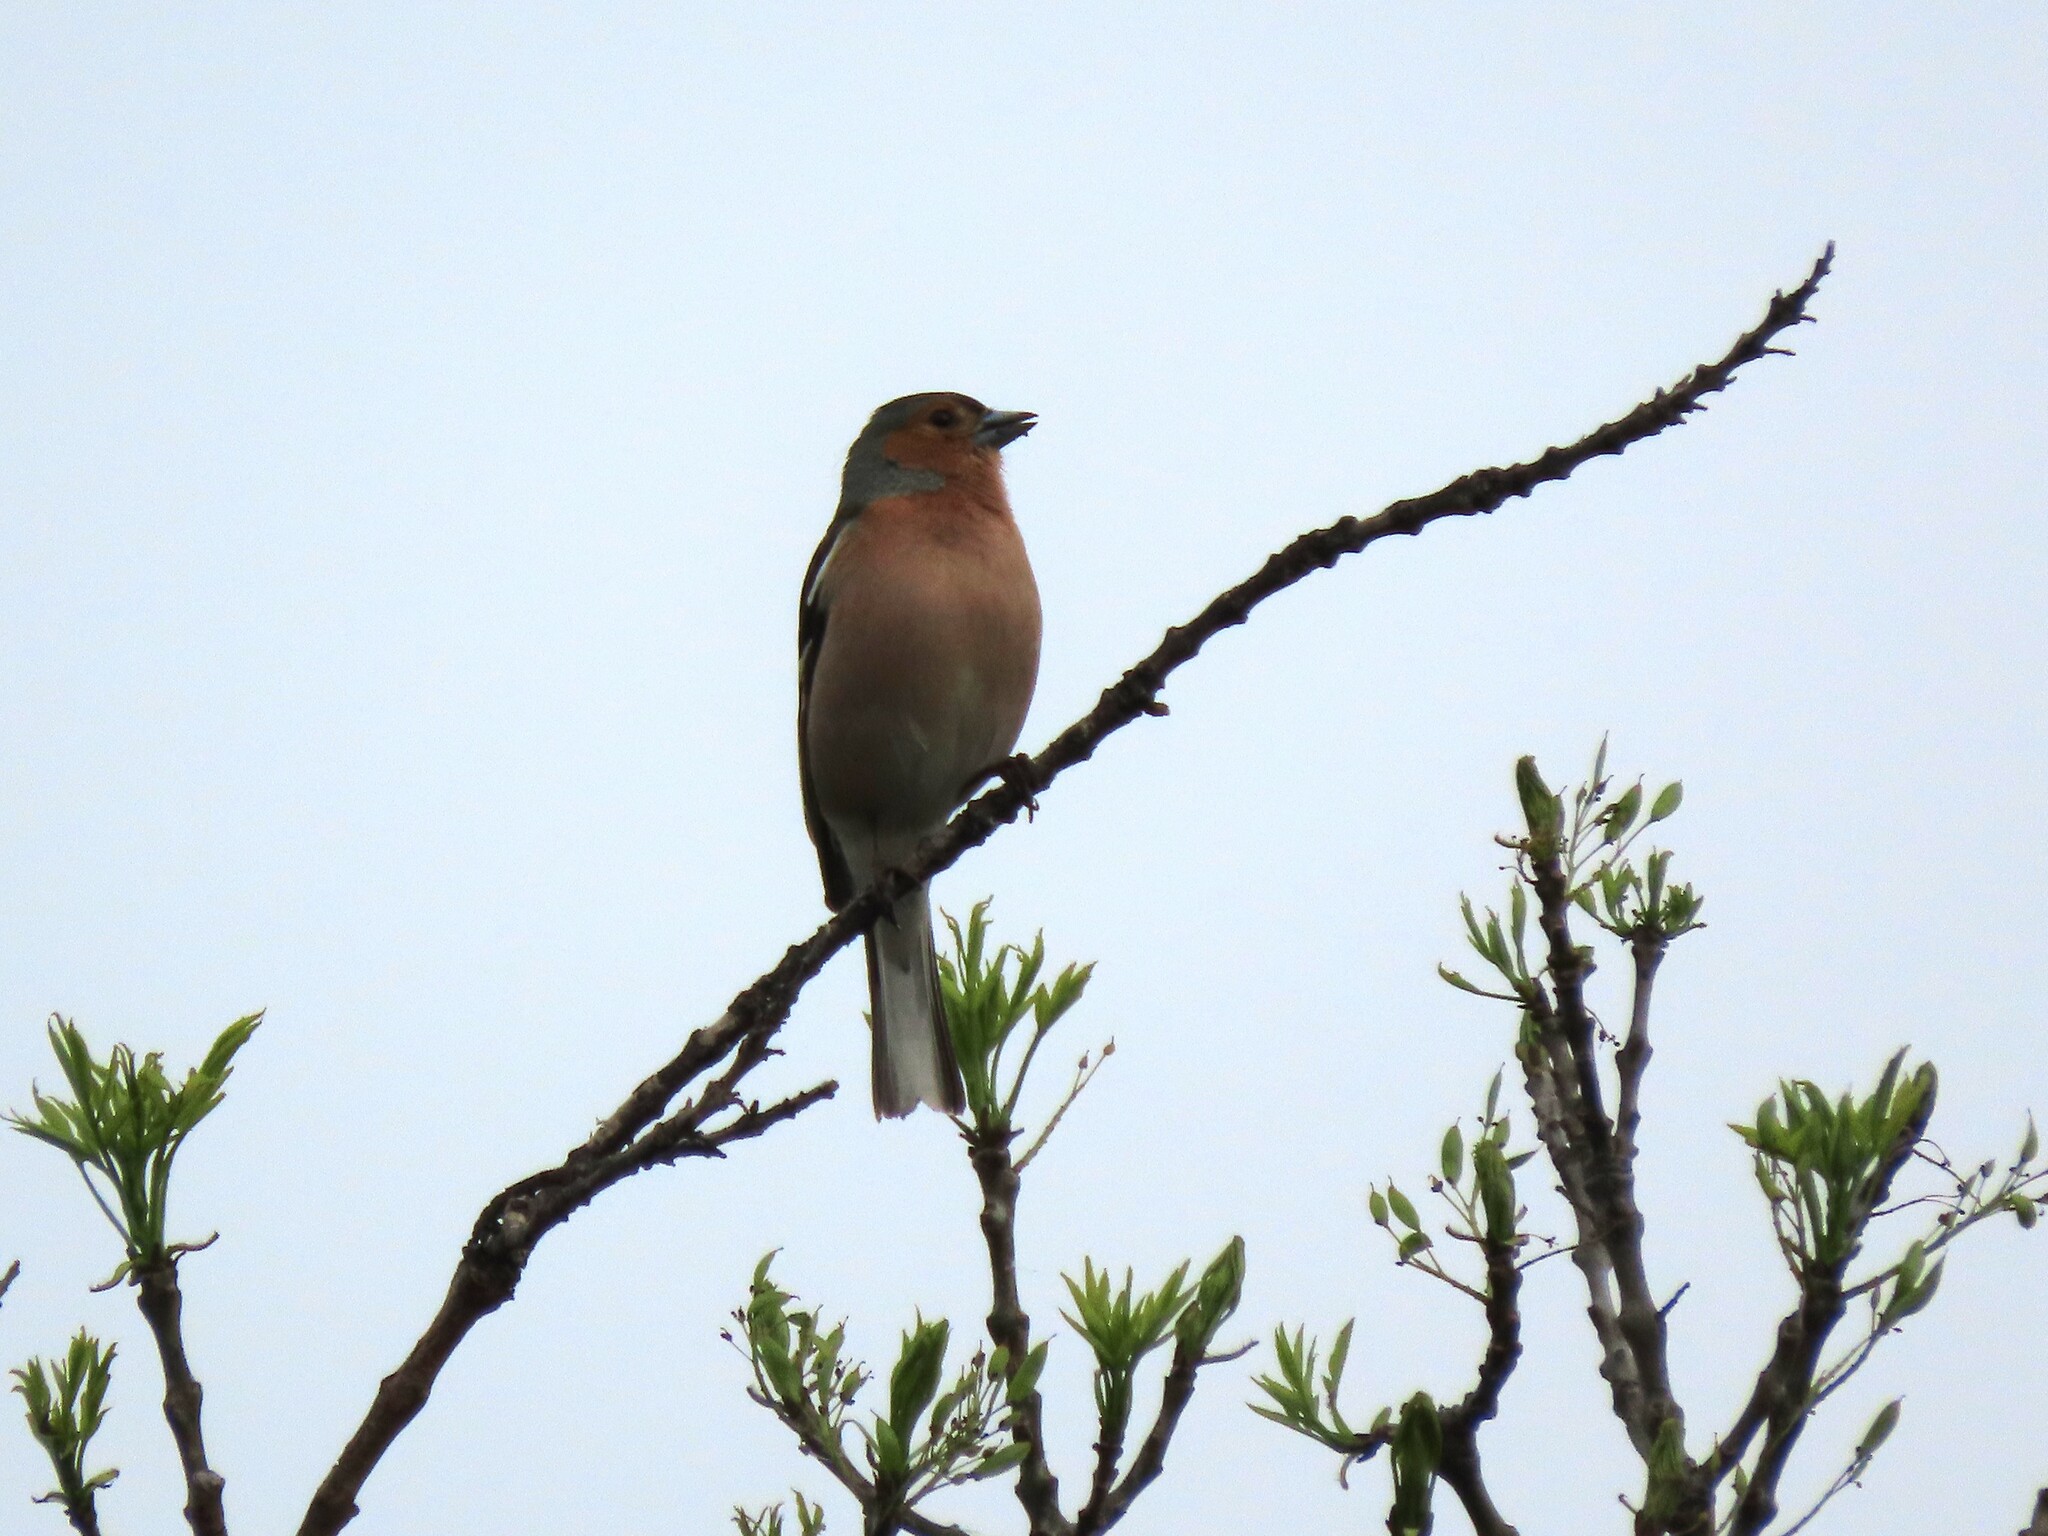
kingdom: Animalia
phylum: Chordata
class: Aves
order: Passeriformes
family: Fringillidae
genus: Fringilla
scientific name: Fringilla coelebs
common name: Common chaffinch
